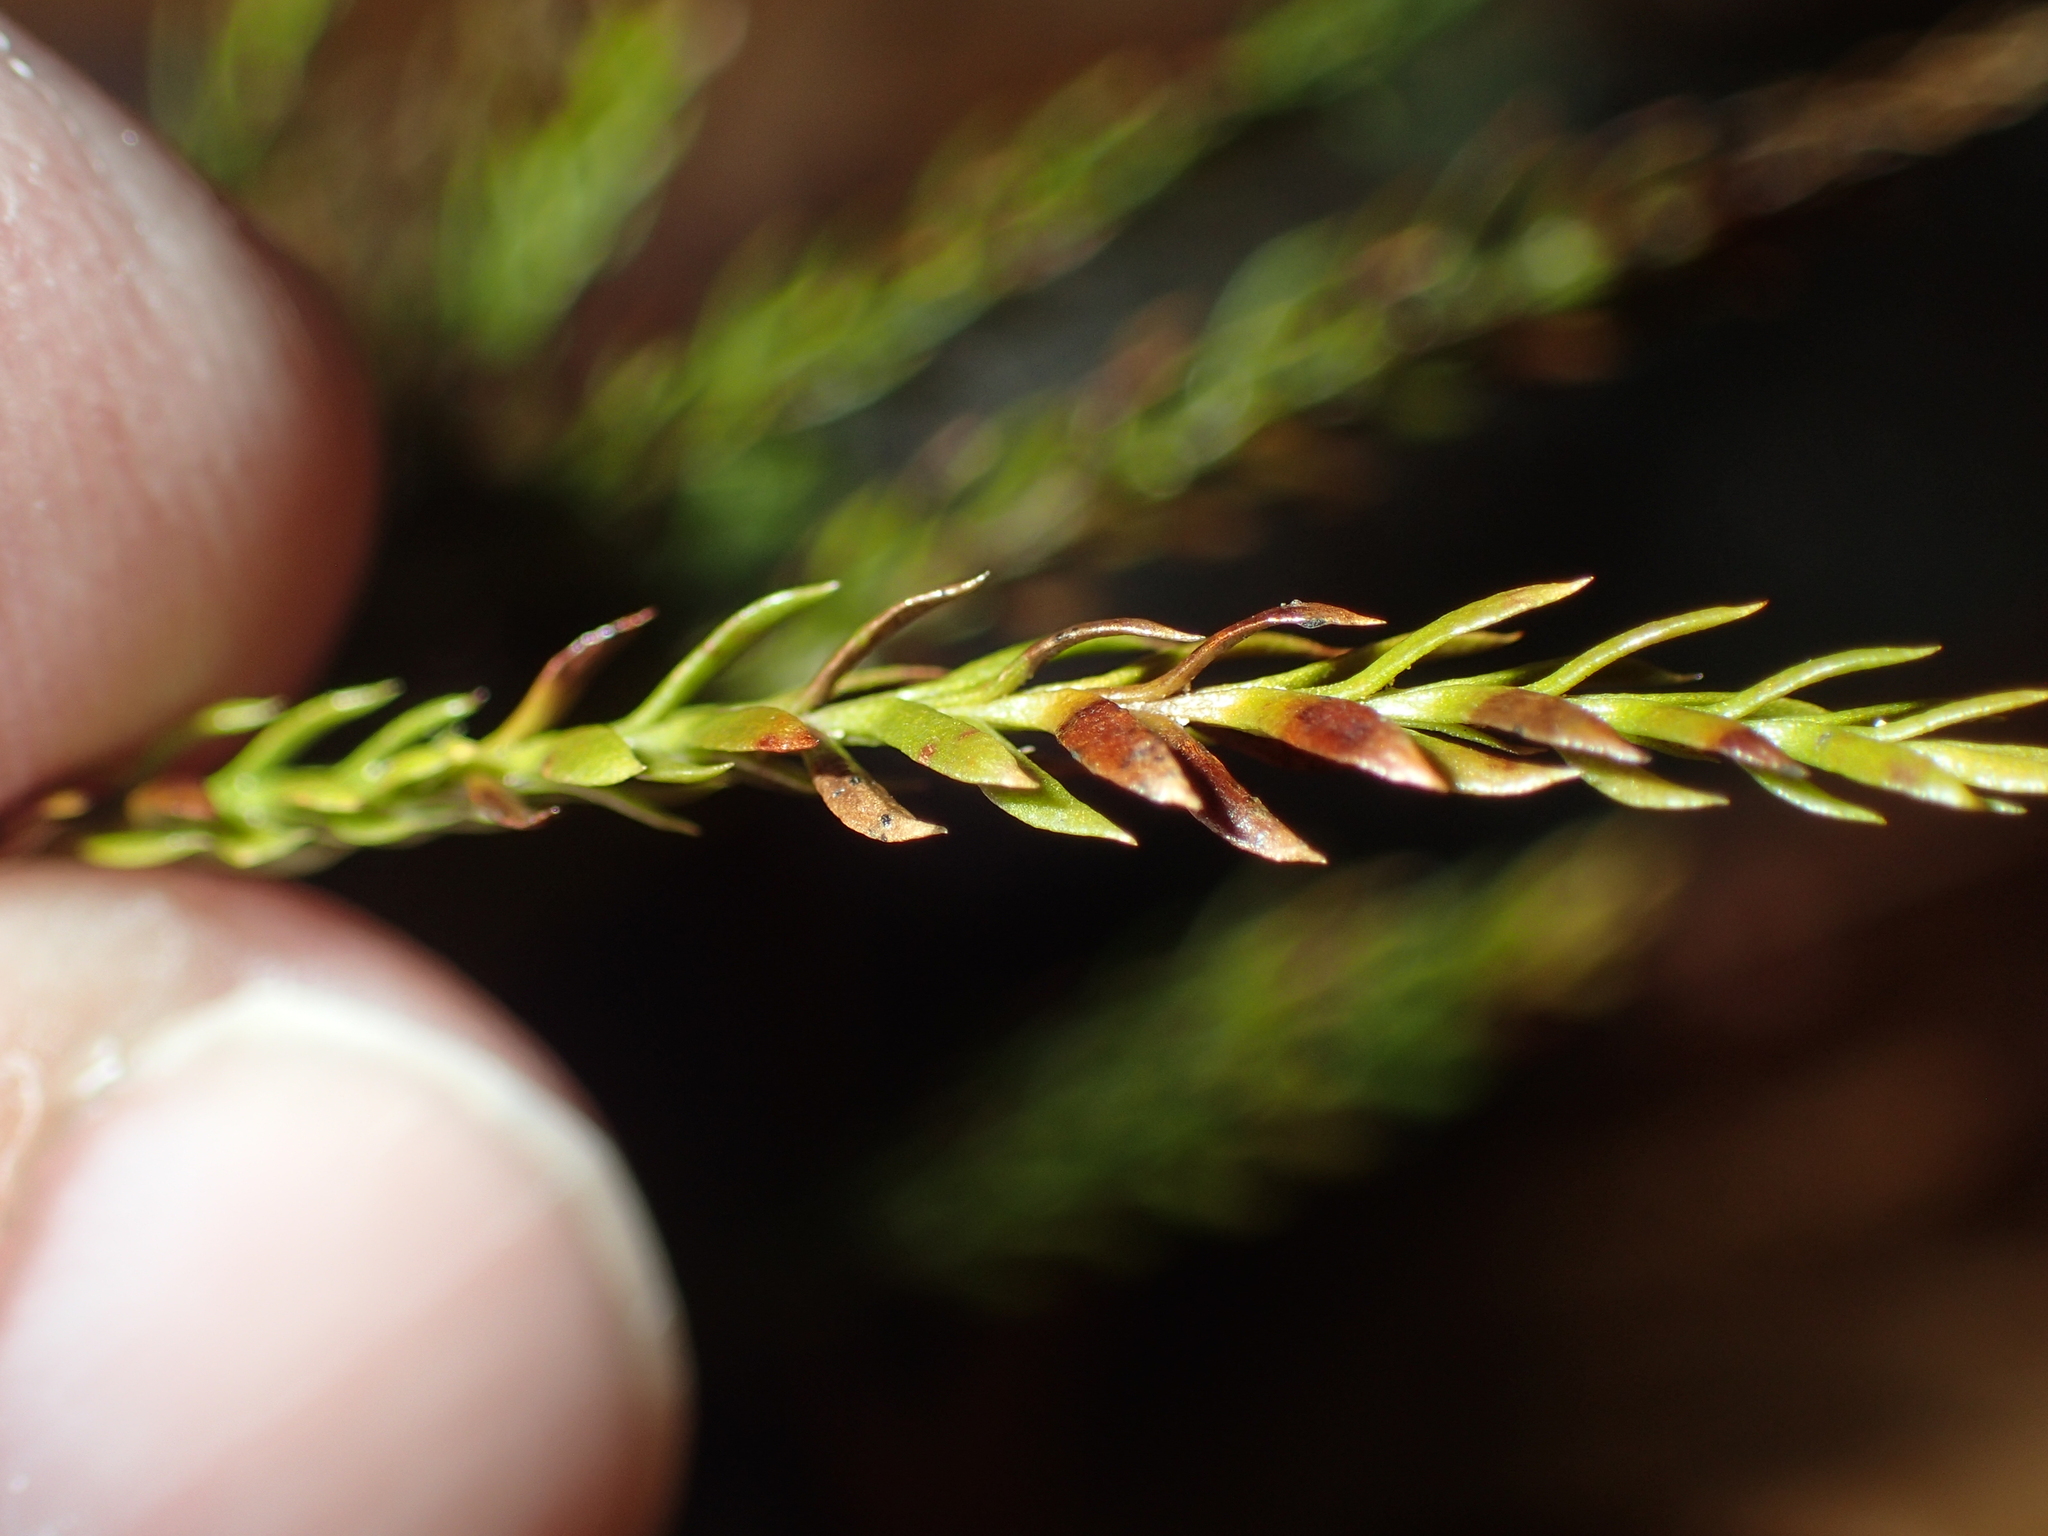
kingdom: Plantae
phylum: Tracheophyta
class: Lycopodiopsida
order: Lycopodiales
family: Lycopodiaceae
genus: Dendrolycopodium
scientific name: Dendrolycopodium obscurum
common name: Common ground-pine
